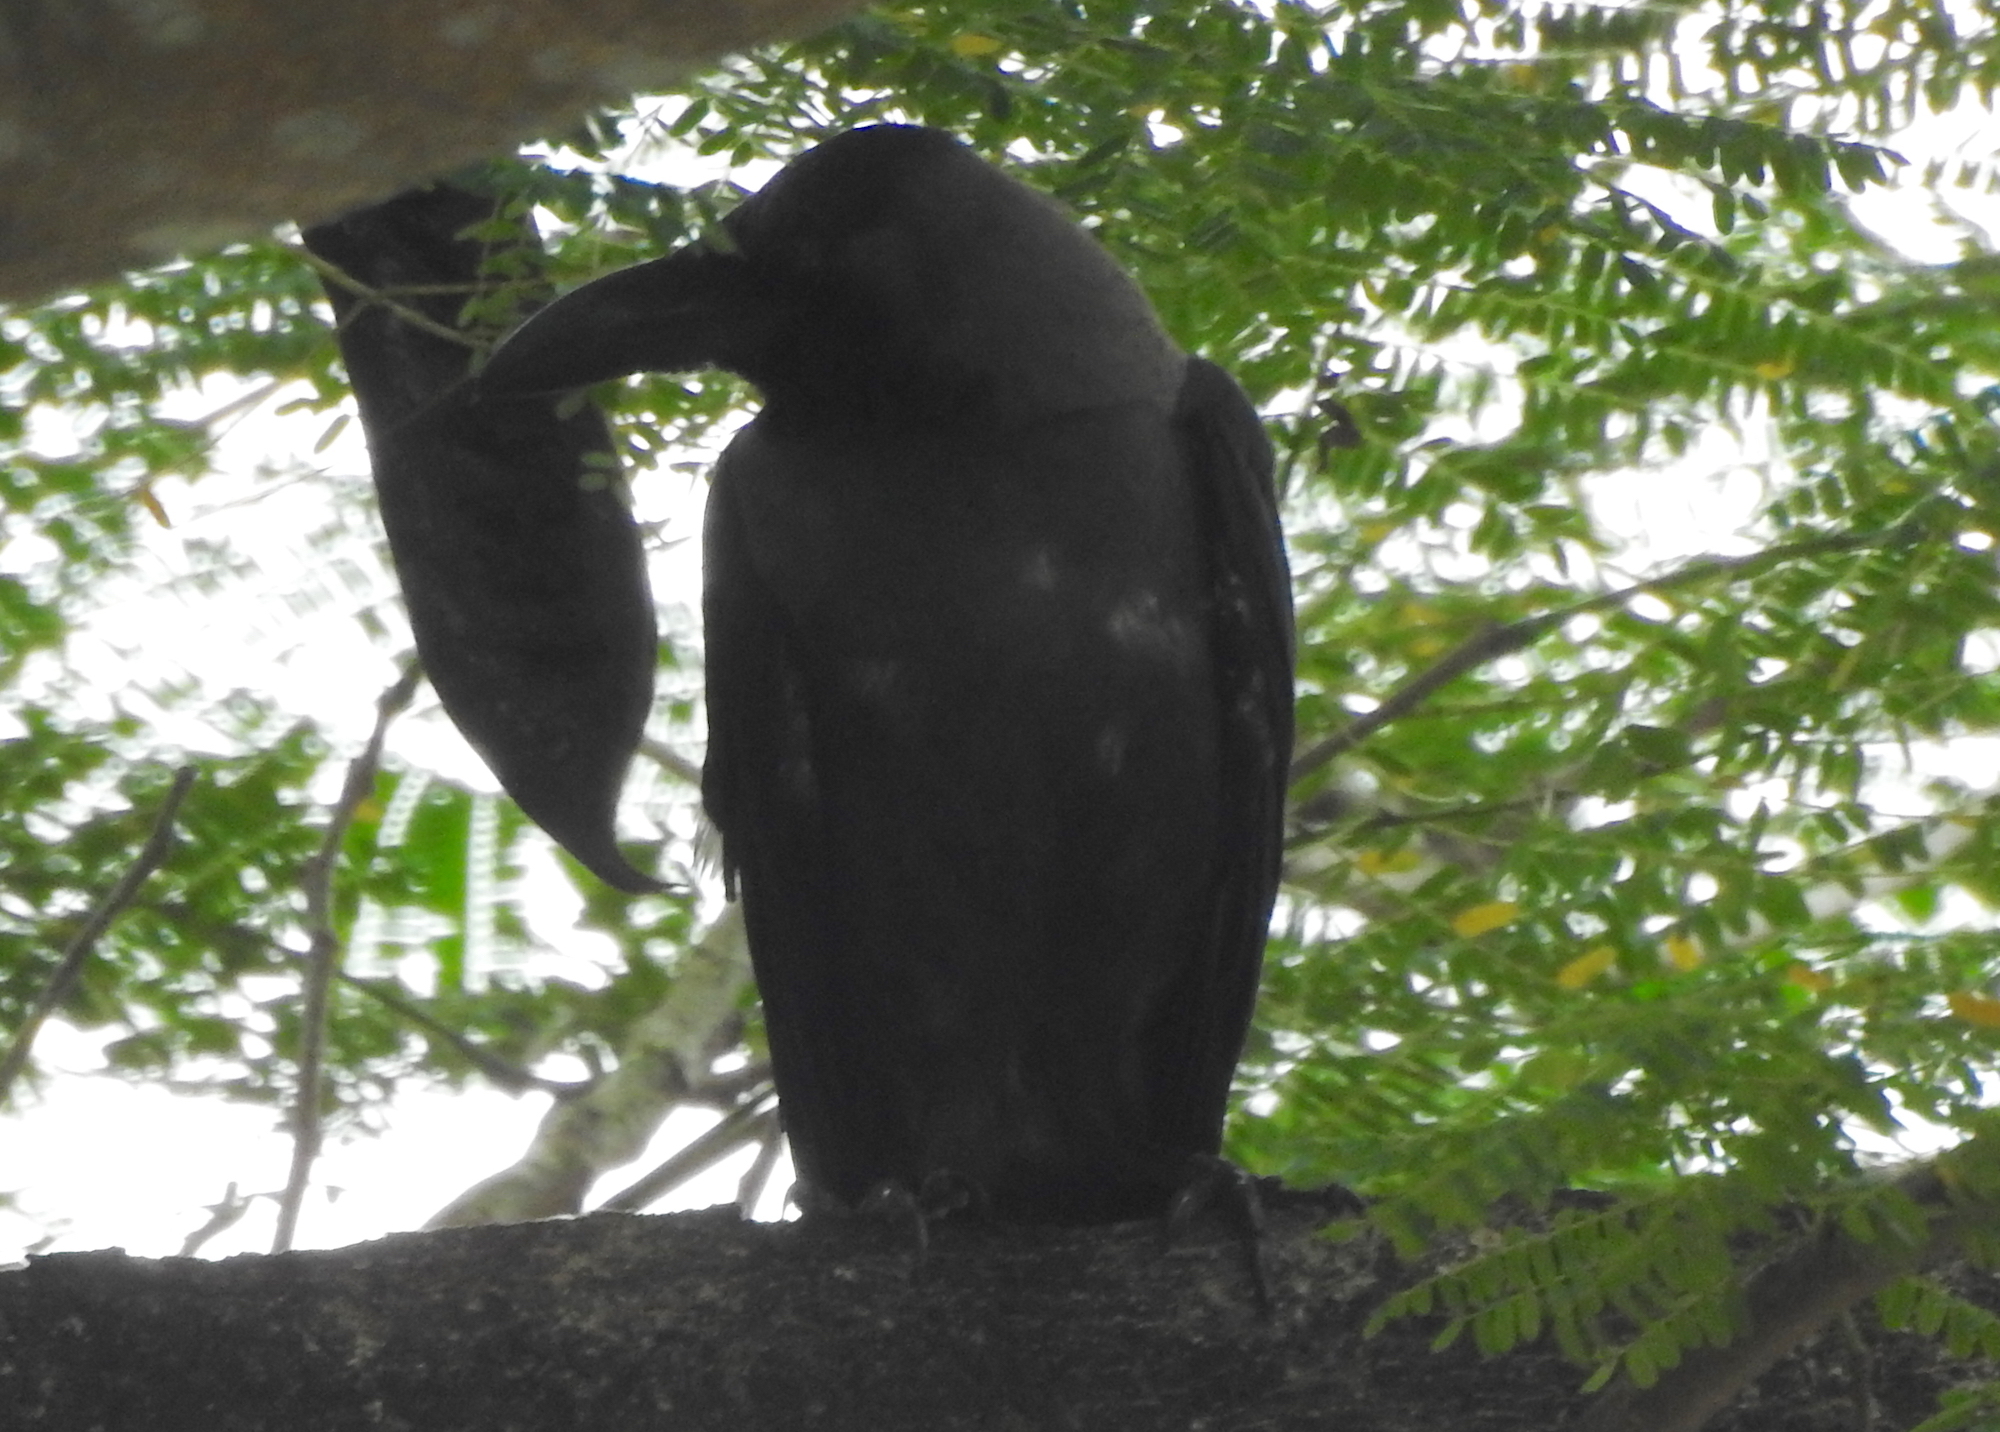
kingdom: Animalia
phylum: Chordata
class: Aves
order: Passeriformes
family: Corvidae
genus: Corvus
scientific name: Corvus splendens
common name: House crow
